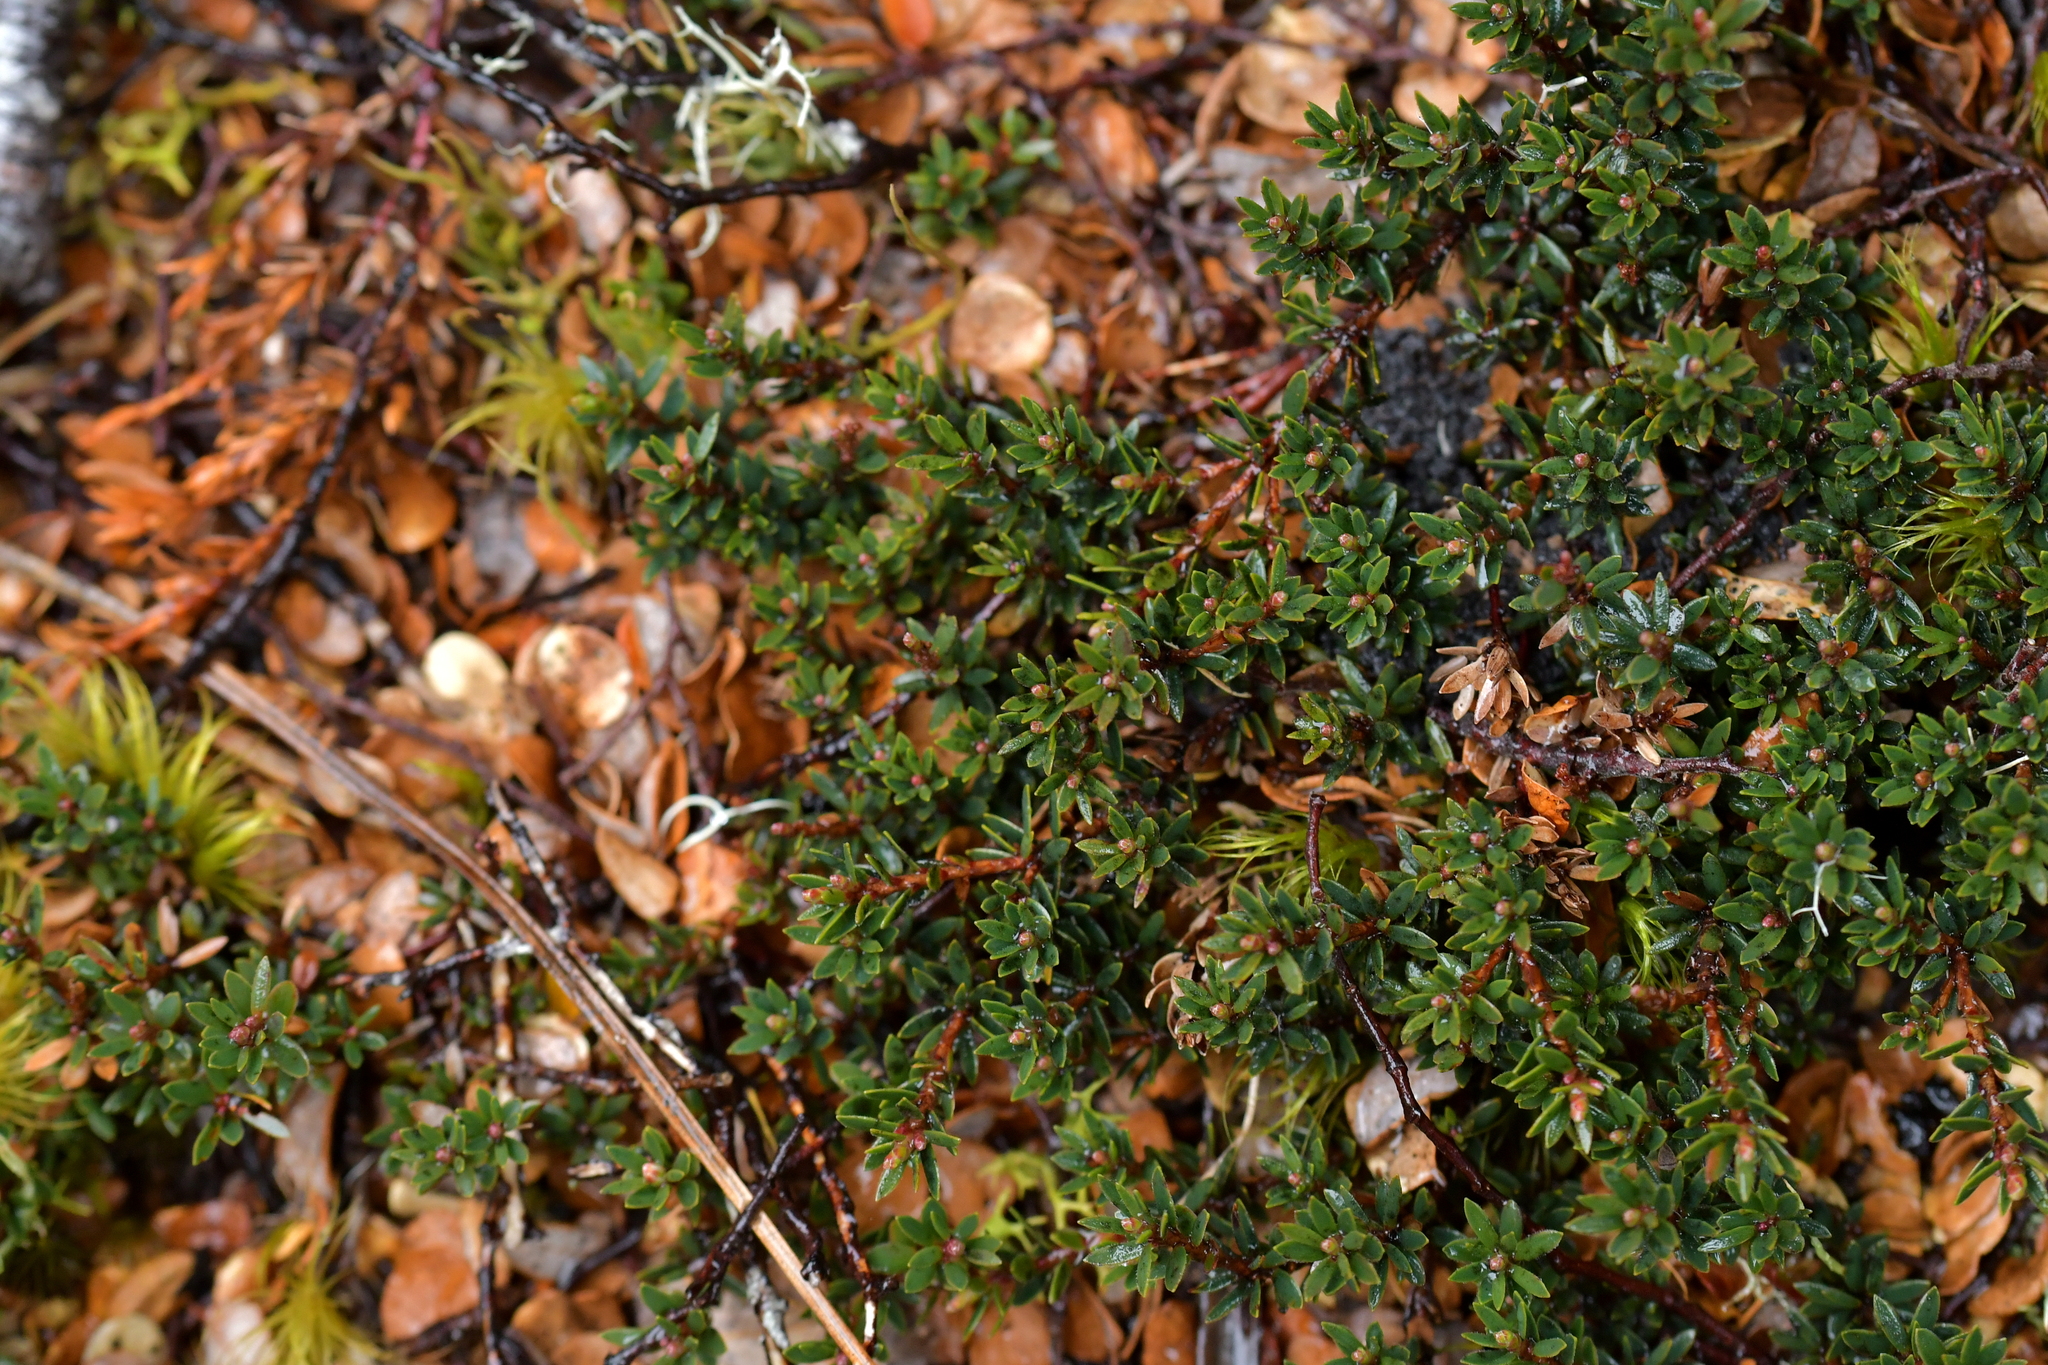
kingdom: Plantae
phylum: Tracheophyta
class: Magnoliopsida
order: Ericales
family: Ericaceae
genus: Pentachondra
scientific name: Pentachondra pumila
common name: Carpet-heath
